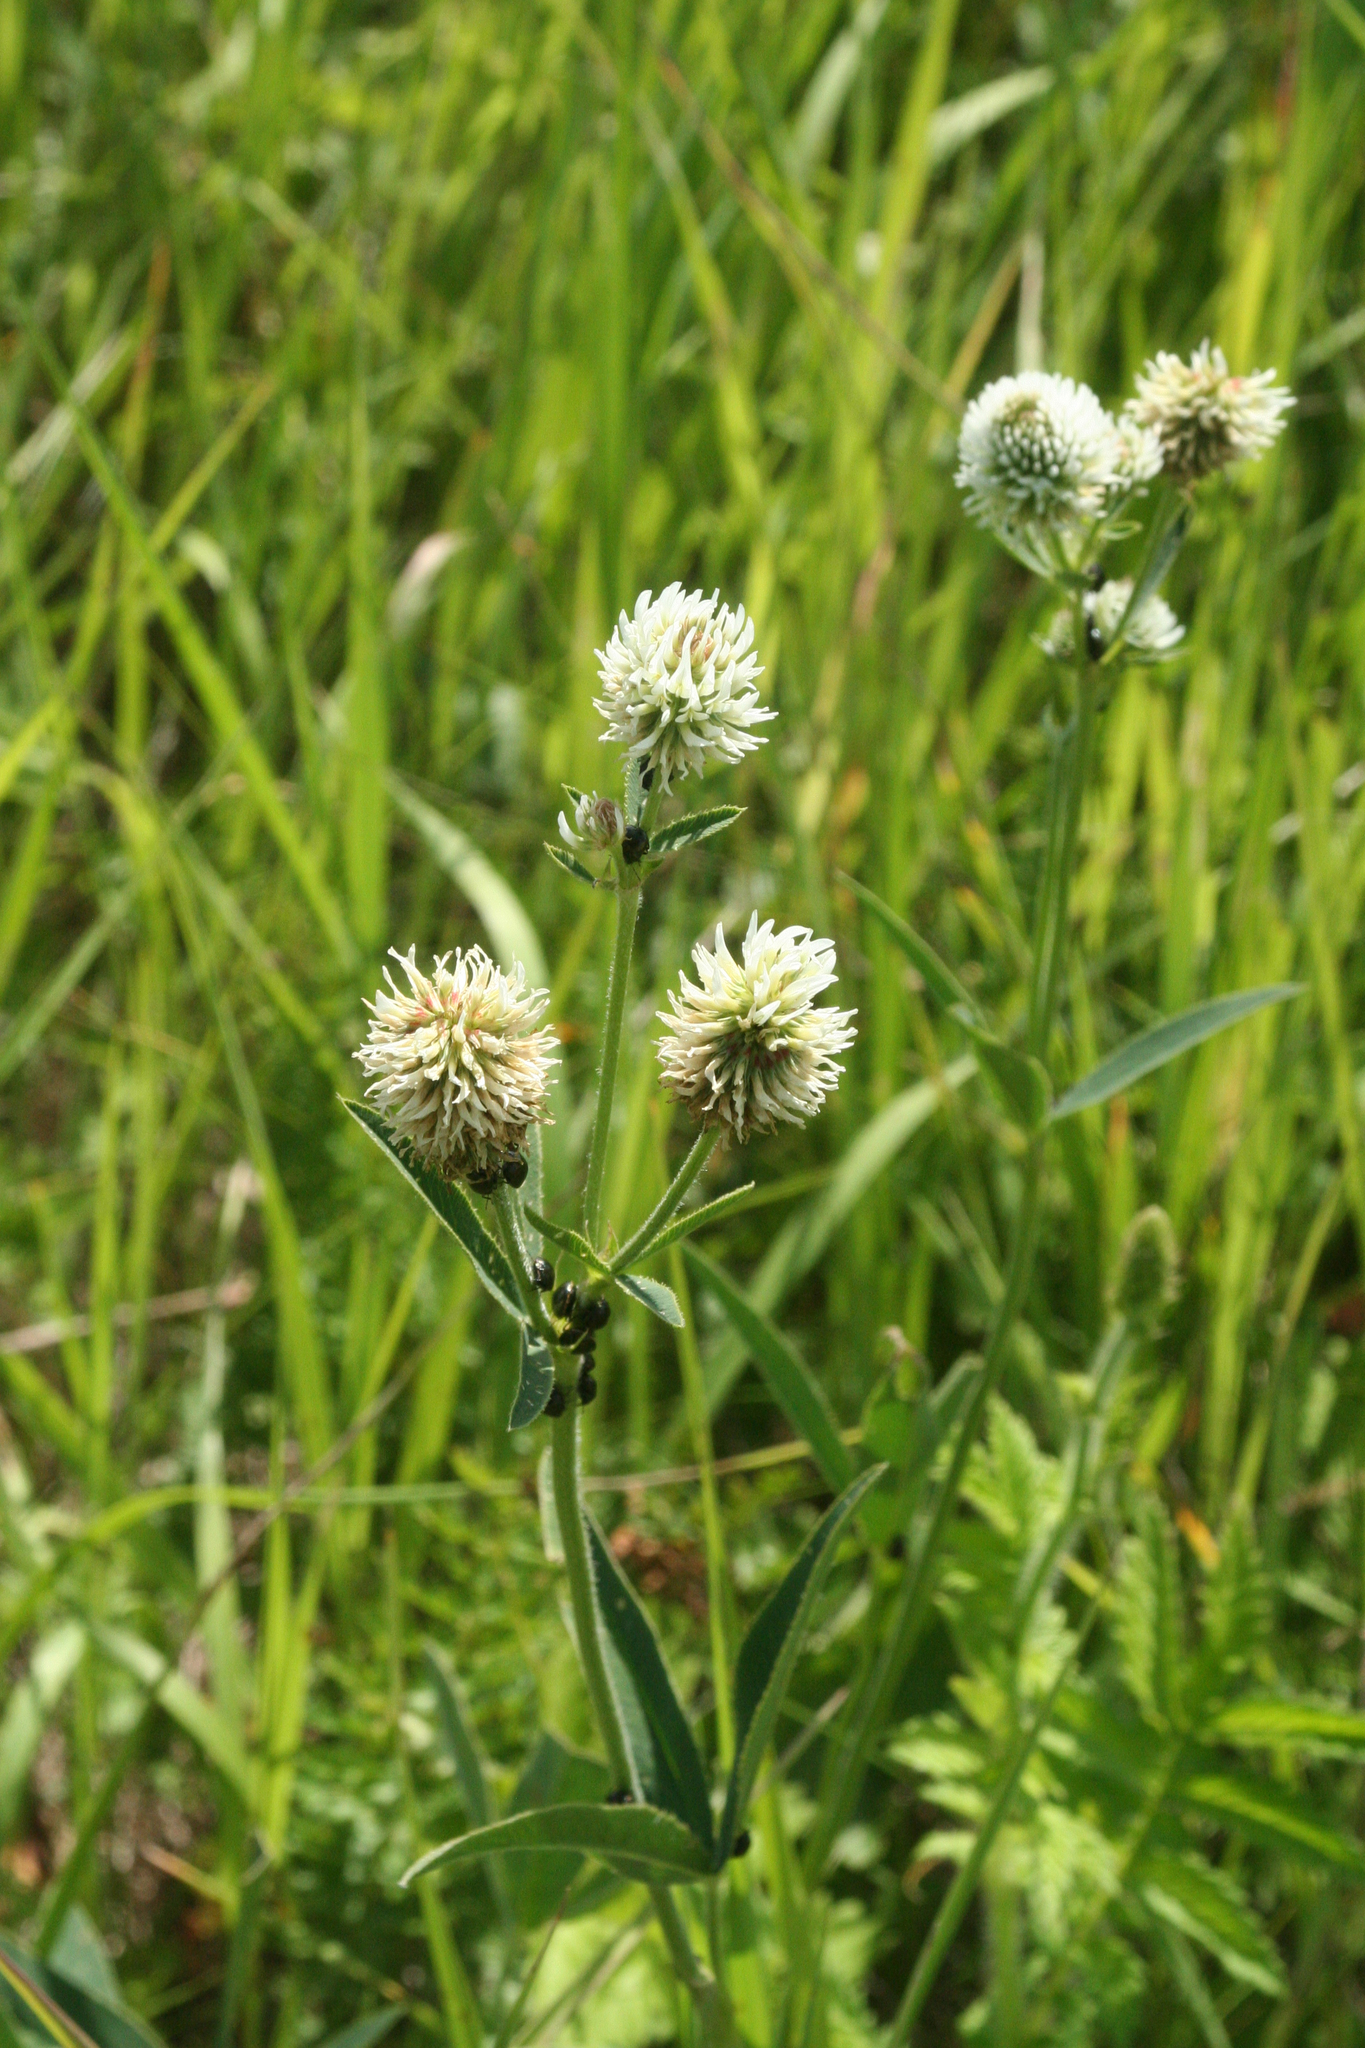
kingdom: Plantae
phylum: Tracheophyta
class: Magnoliopsida
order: Fabales
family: Fabaceae
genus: Trifolium
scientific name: Trifolium montanum
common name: Mountain clover
